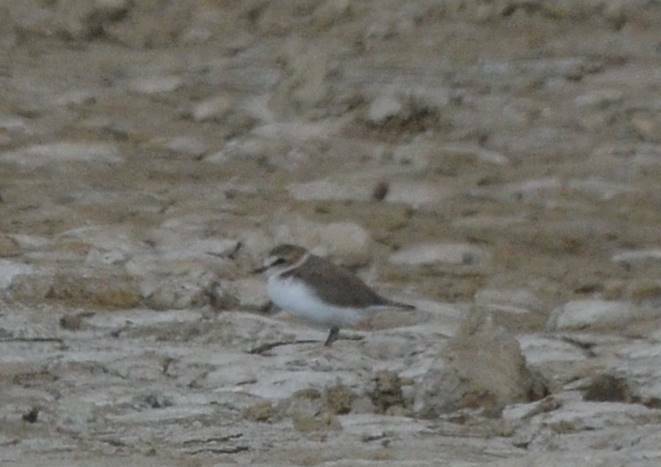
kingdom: Animalia
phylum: Chordata
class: Aves
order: Charadriiformes
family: Charadriidae
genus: Charadrius
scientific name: Charadrius alexandrinus
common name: Kentish plover
